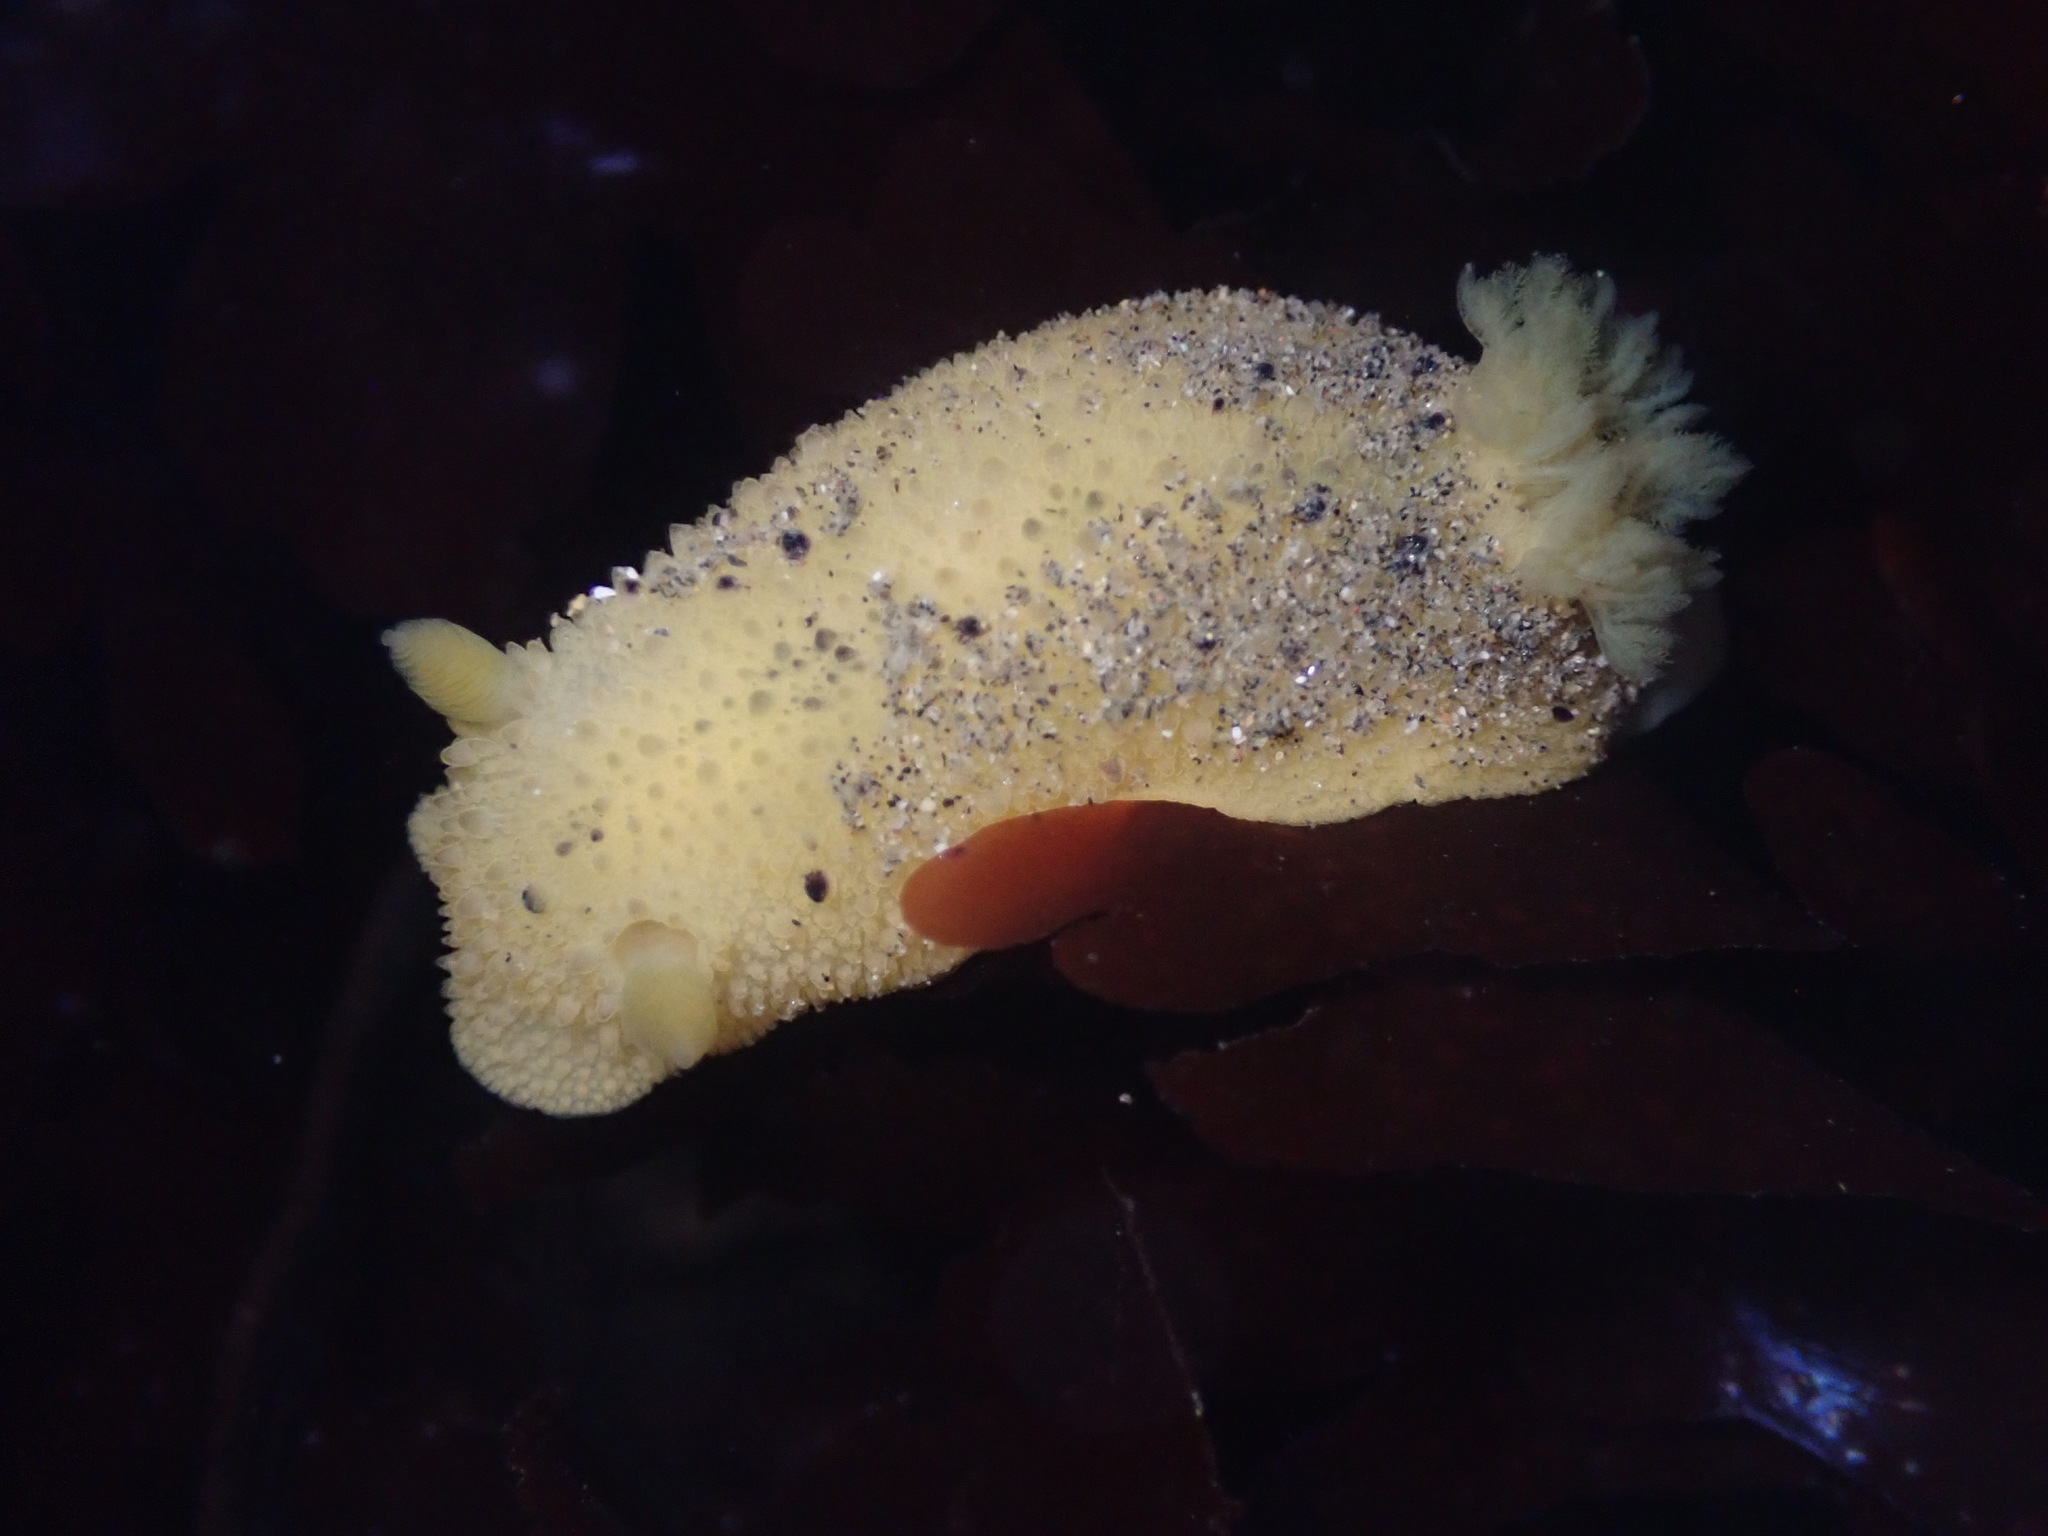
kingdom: Animalia
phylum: Mollusca
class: Gastropoda
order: Nudibranchia
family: Dorididae
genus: Doris
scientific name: Doris montereyensis
